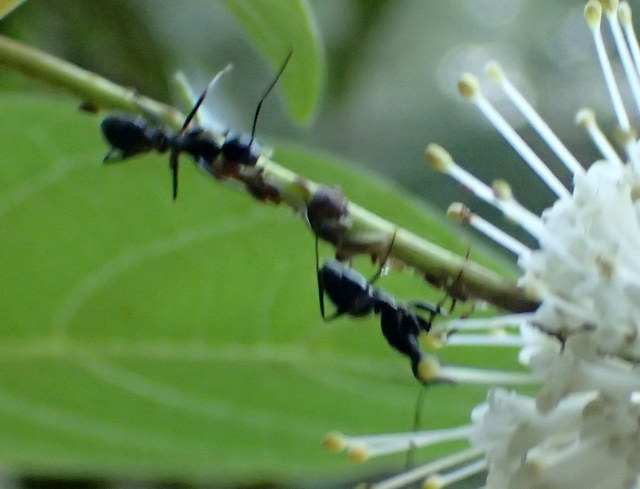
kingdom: Animalia
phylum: Arthropoda
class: Insecta
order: Hymenoptera
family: Formicidae
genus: Camponotus
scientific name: Camponotus pennsylvanicus
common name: Black carpenter ant
